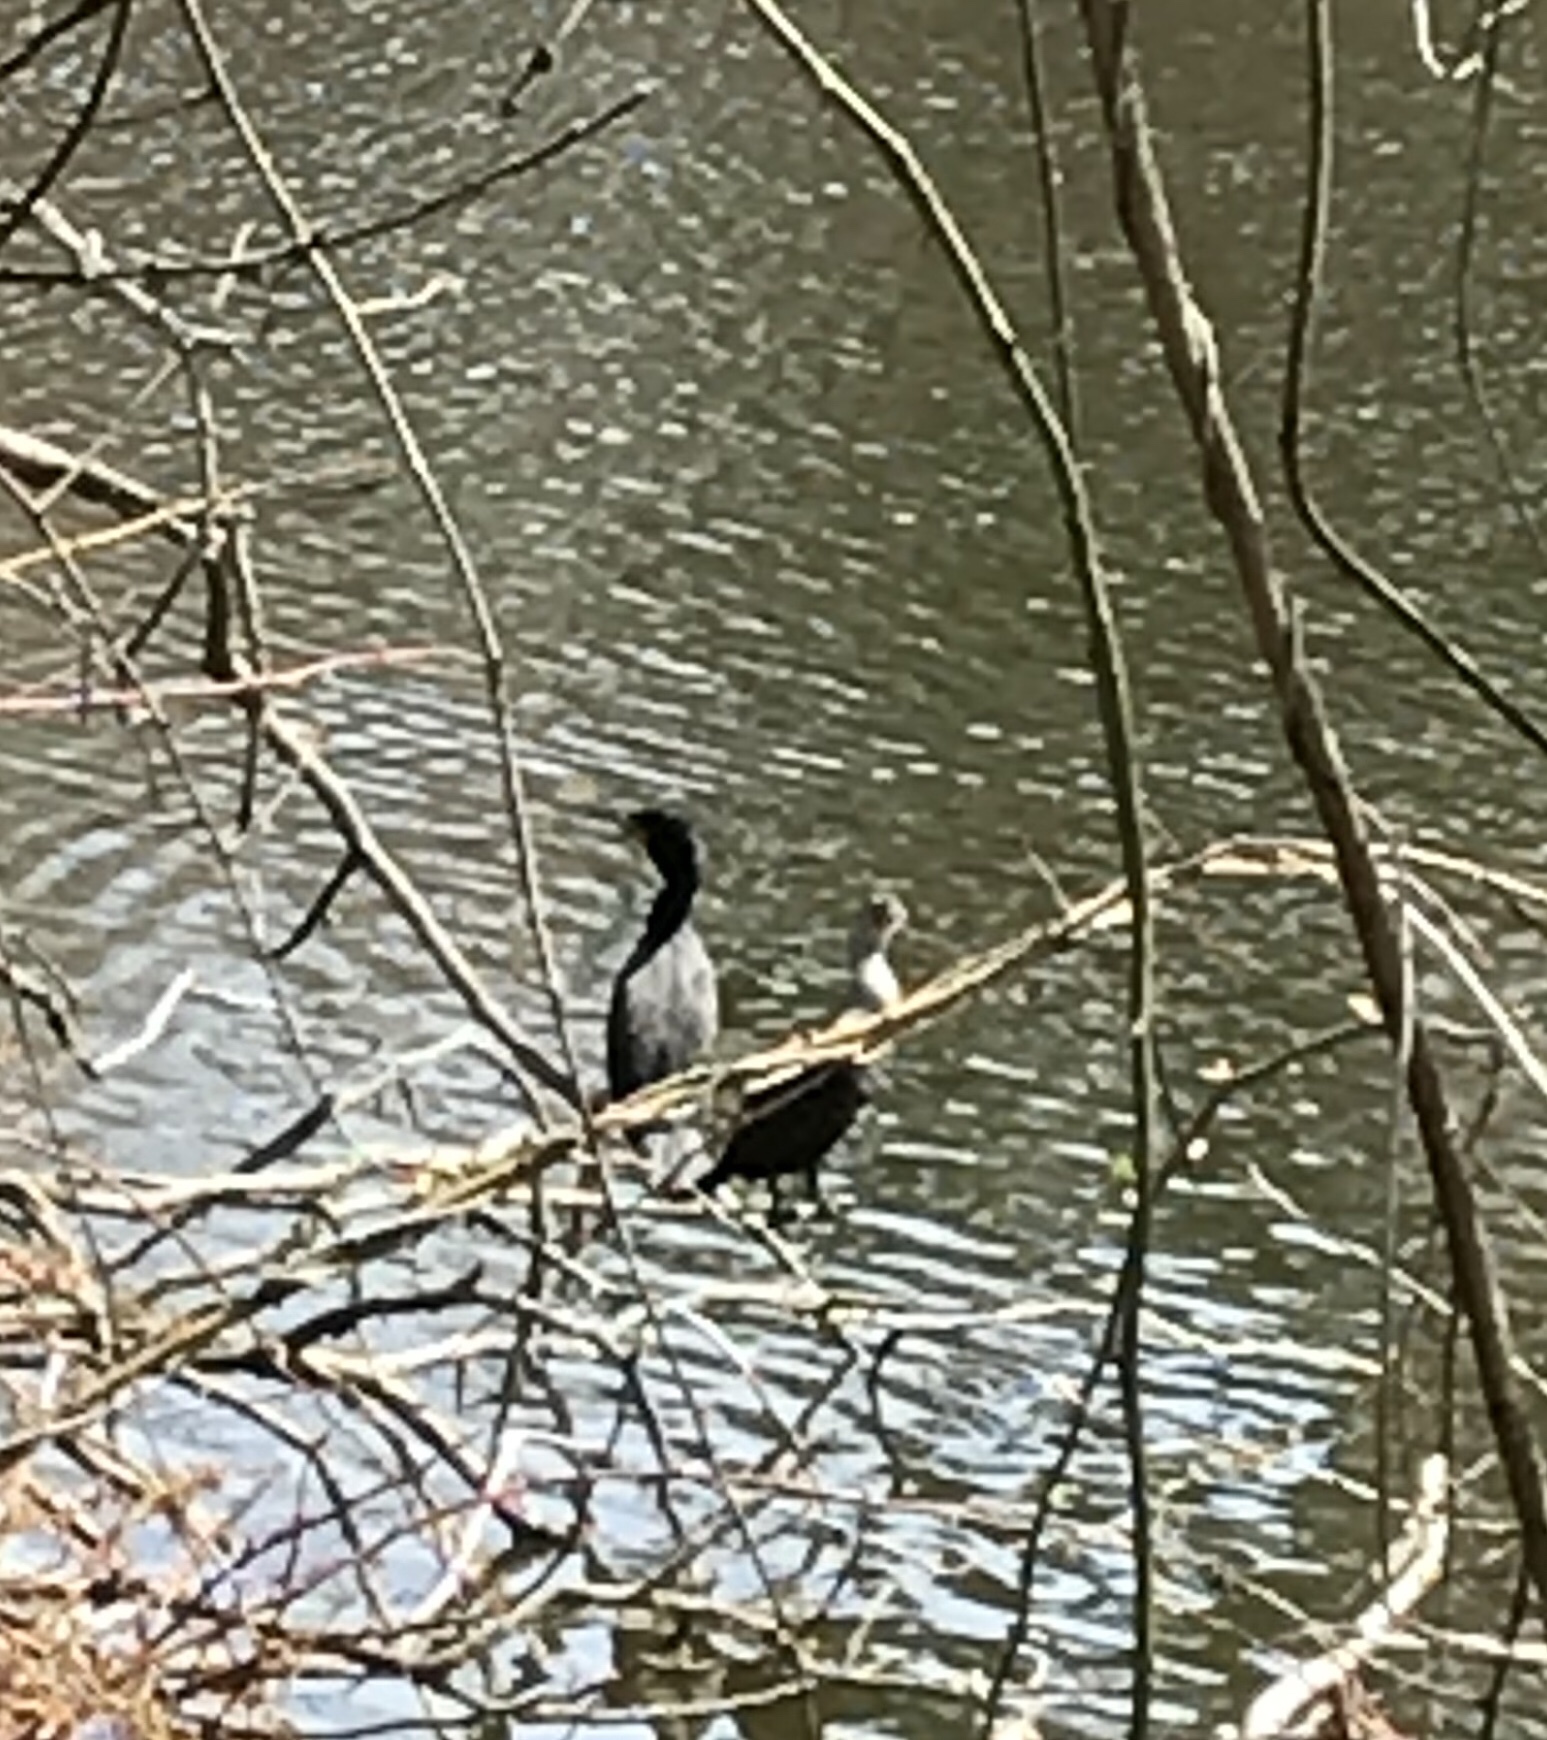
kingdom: Animalia
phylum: Chordata
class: Aves
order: Suliformes
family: Phalacrocoracidae
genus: Phalacrocorax
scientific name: Phalacrocorax auritus
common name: Double-crested cormorant
